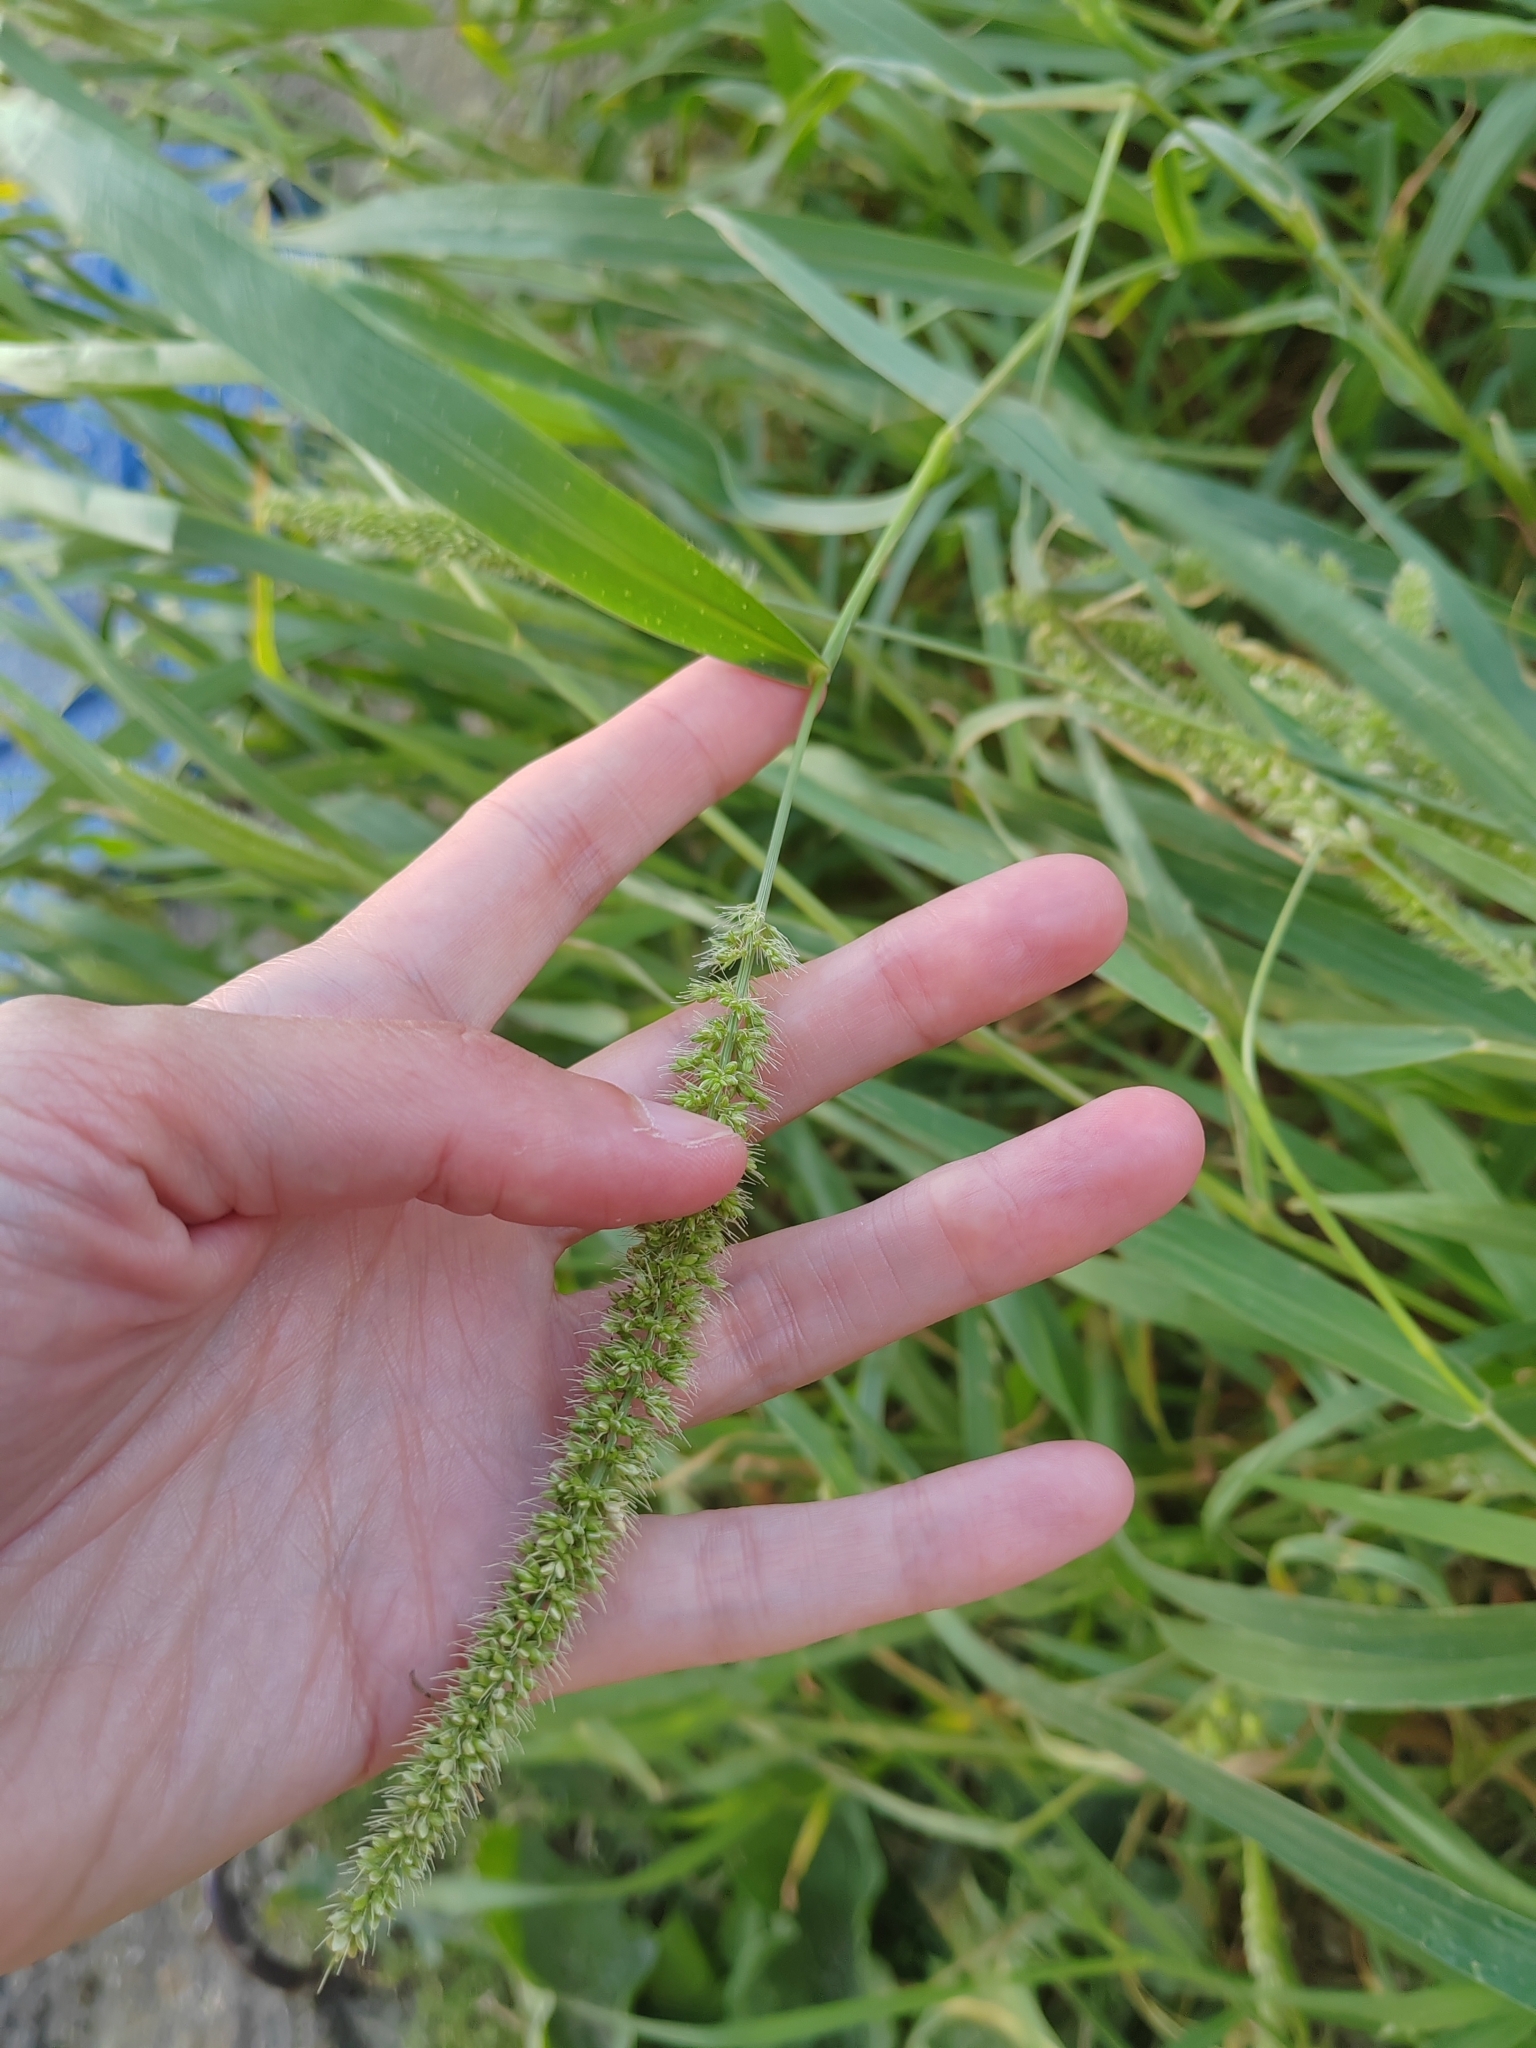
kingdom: Plantae
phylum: Tracheophyta
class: Liliopsida
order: Poales
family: Poaceae
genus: Setaria
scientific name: Setaria verticillata
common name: Hooked bristlegrass
